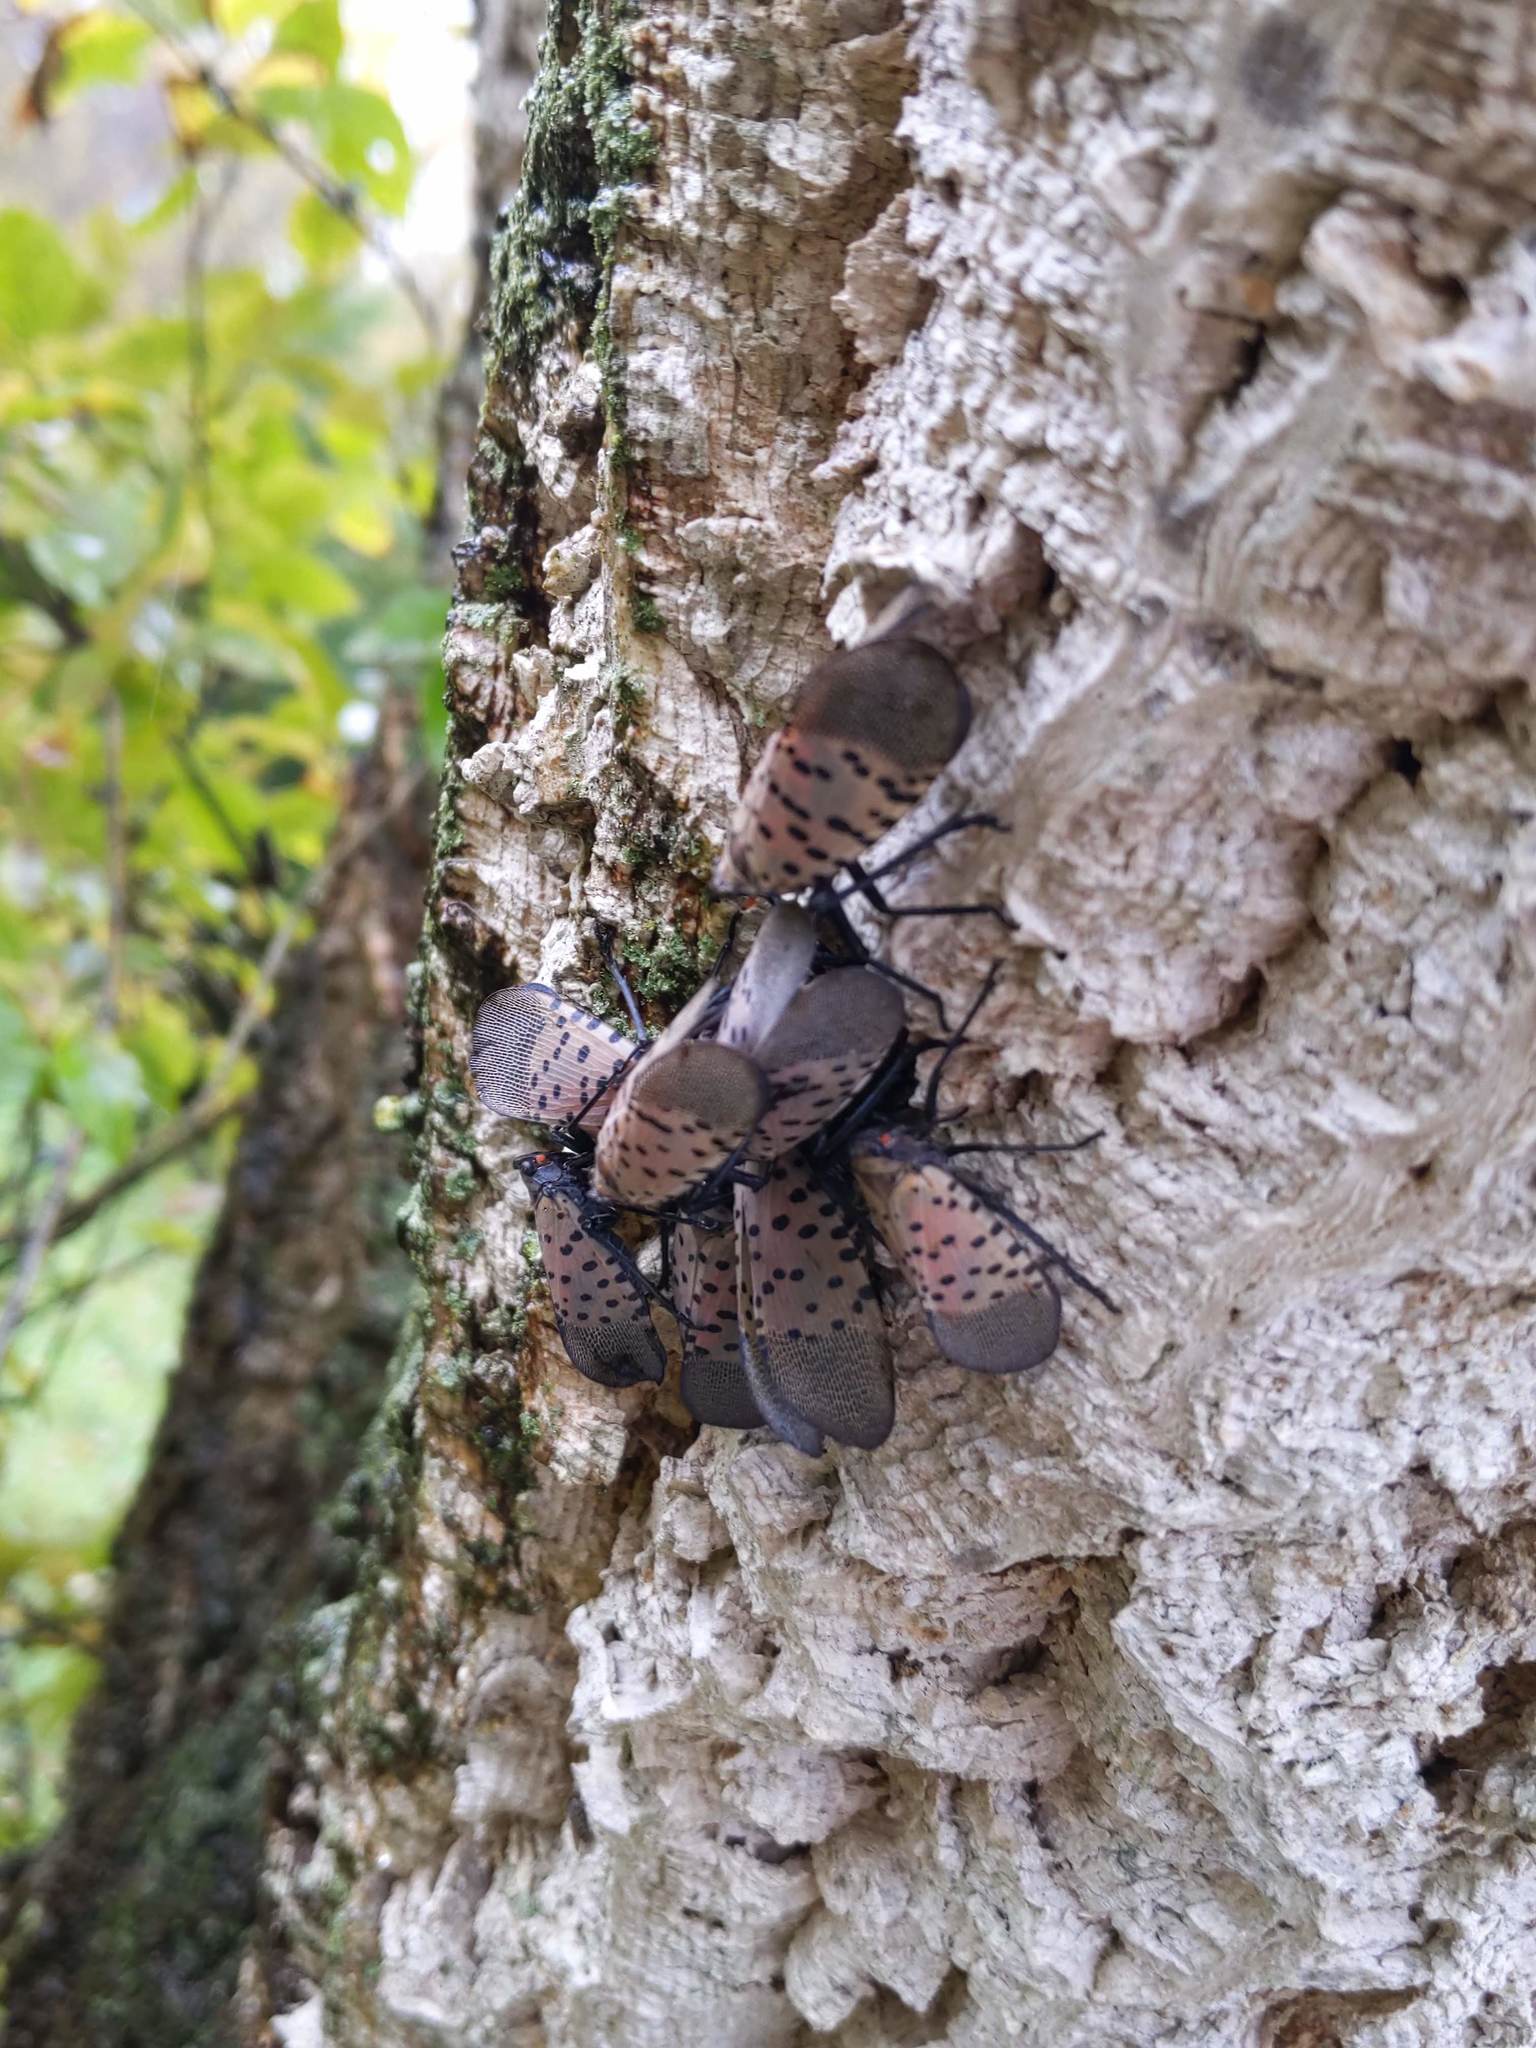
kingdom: Animalia
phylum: Arthropoda
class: Insecta
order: Hemiptera
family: Fulgoridae
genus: Lycorma
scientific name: Lycorma delicatula
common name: Spotted lanternfly
